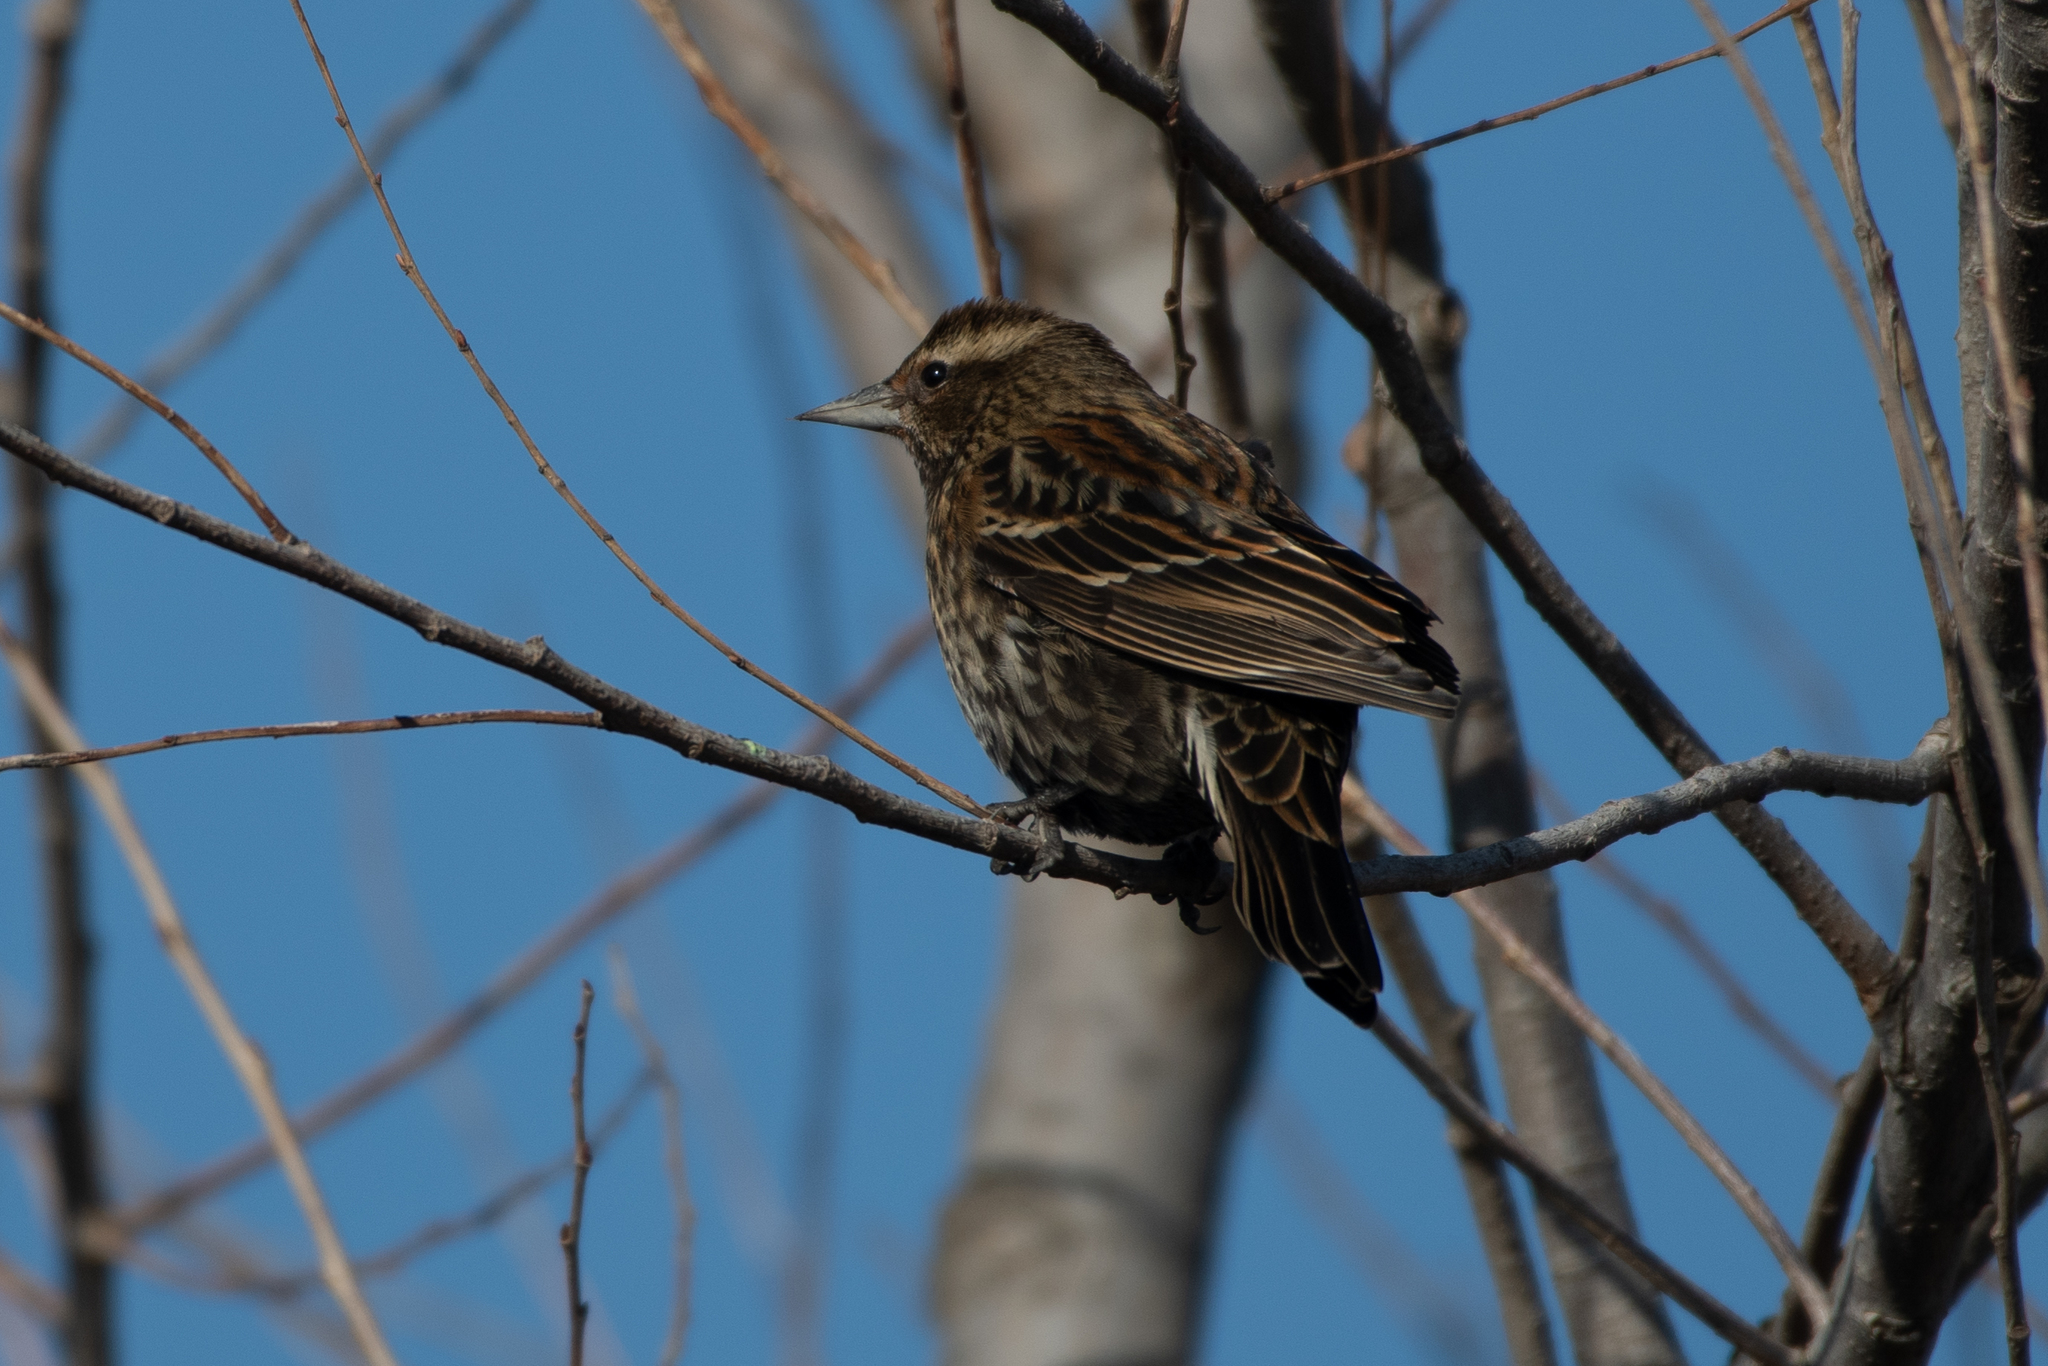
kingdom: Animalia
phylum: Chordata
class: Aves
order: Passeriformes
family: Icteridae
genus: Agelaius
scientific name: Agelaius phoeniceus
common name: Red-winged blackbird
